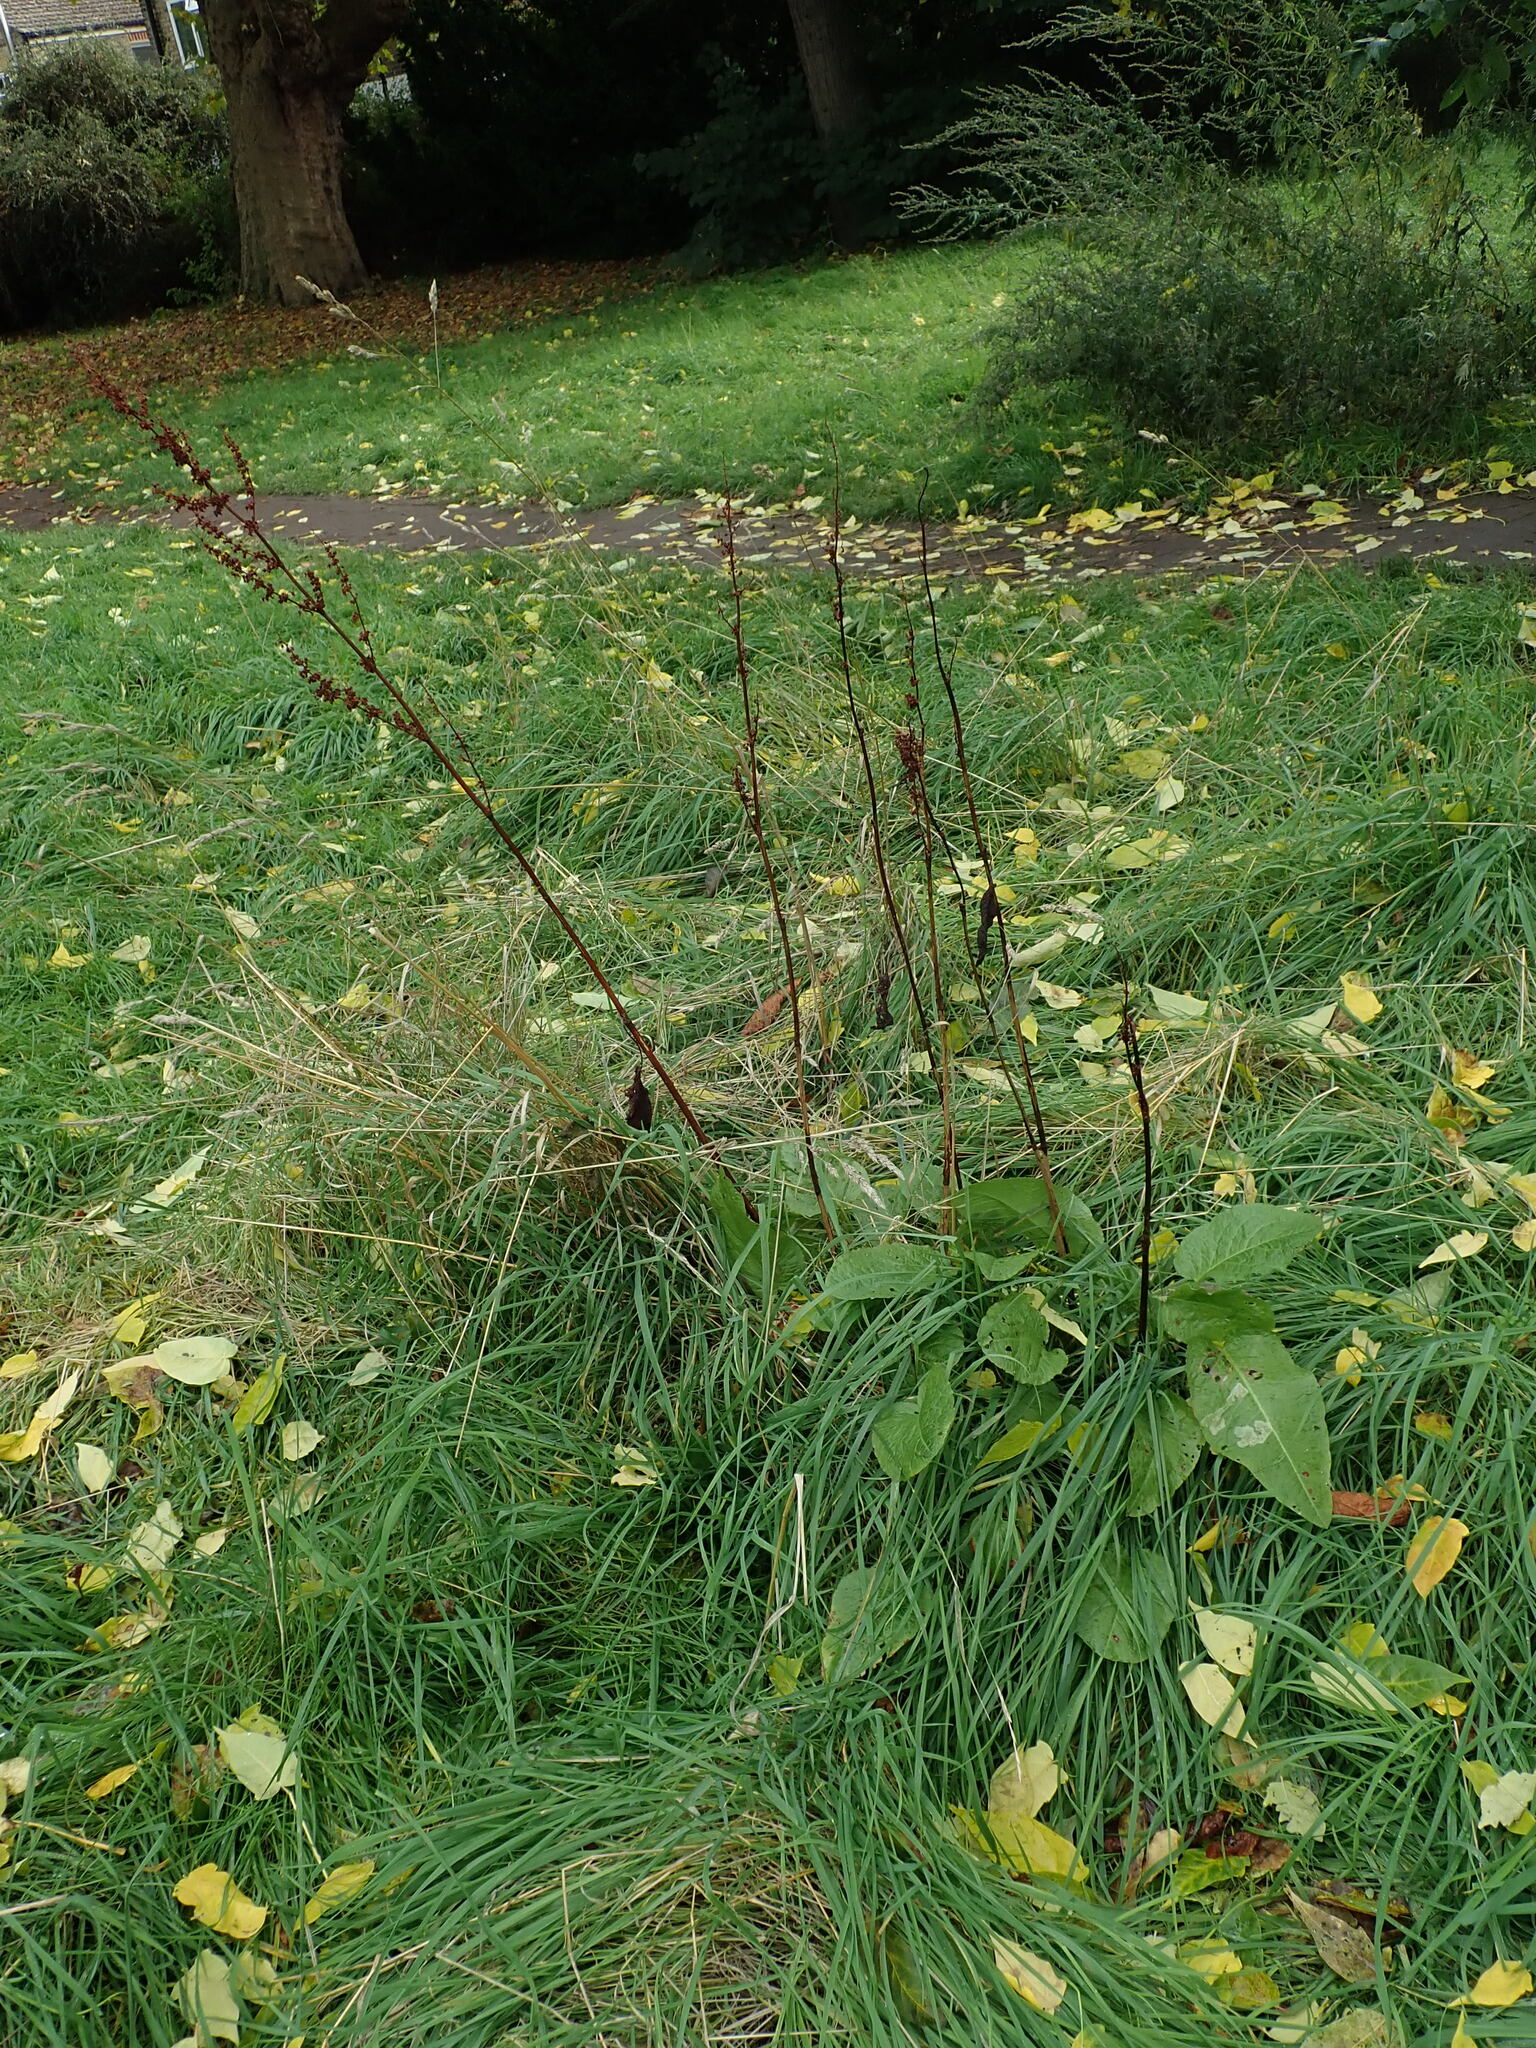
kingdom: Plantae
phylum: Tracheophyta
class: Magnoliopsida
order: Caryophyllales
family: Polygonaceae
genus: Rumex
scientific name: Rumex obtusifolius
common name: Bitter dock
